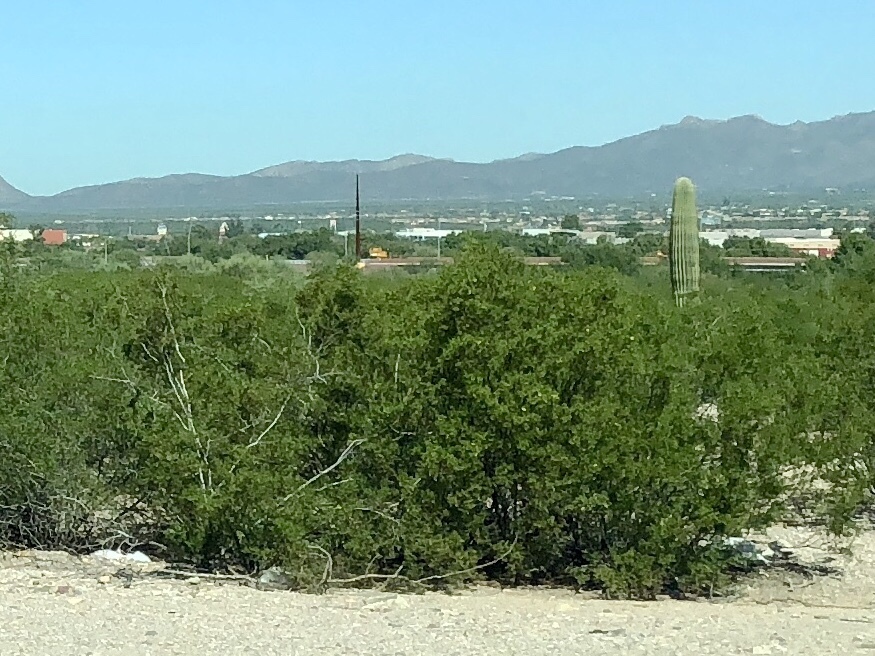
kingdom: Plantae
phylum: Tracheophyta
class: Magnoliopsida
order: Zygophyllales
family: Zygophyllaceae
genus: Larrea
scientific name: Larrea tridentata
